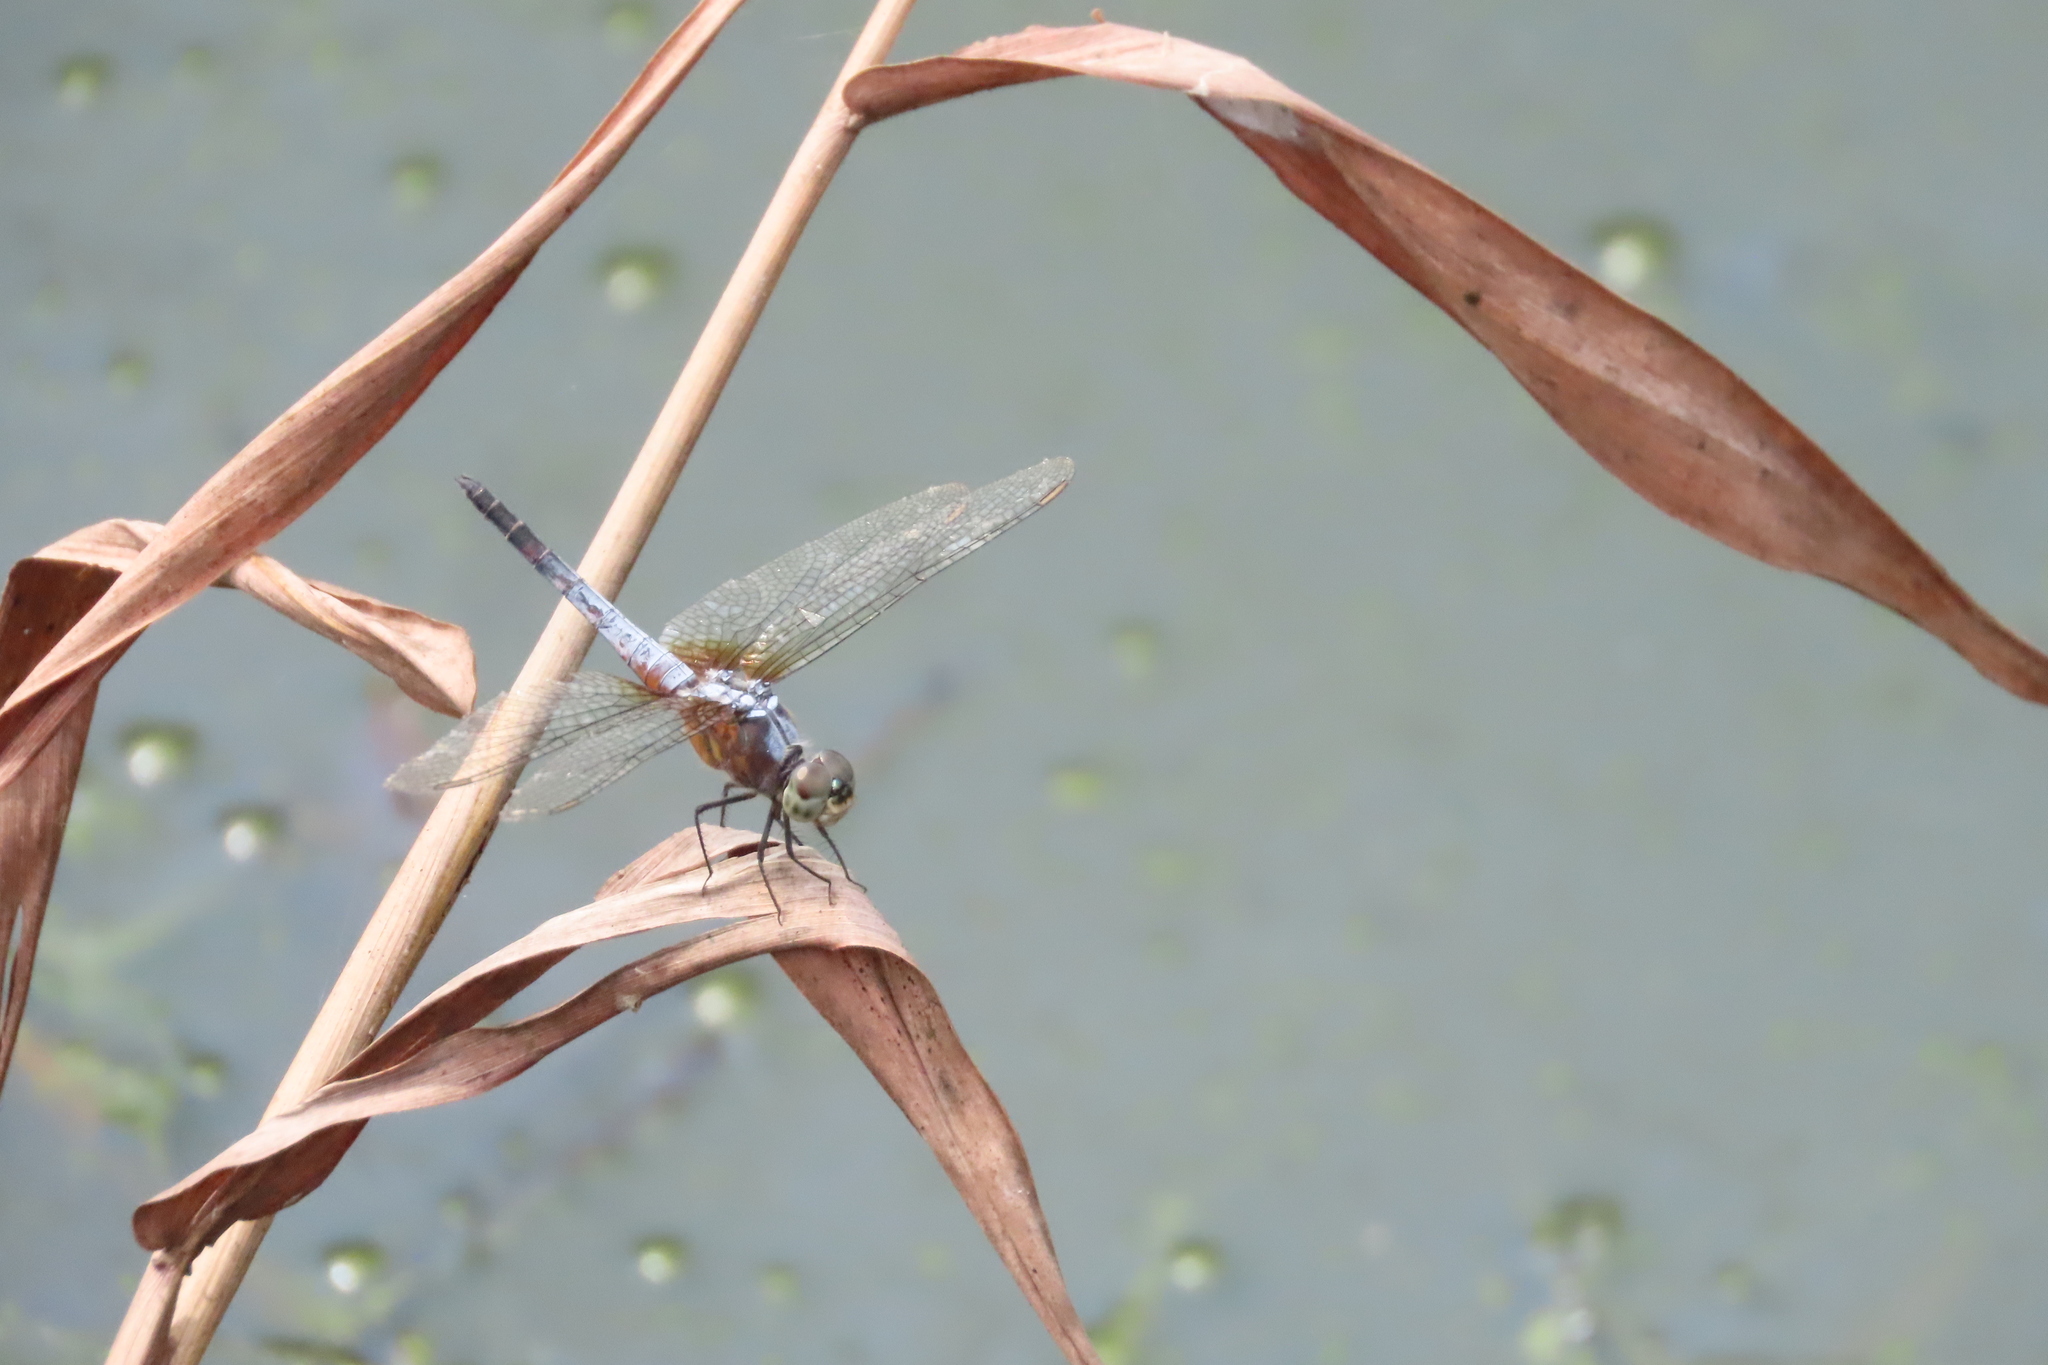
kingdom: Animalia
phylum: Arthropoda
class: Insecta
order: Odonata
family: Libellulidae
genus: Brachydiplax
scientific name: Brachydiplax chalybea
